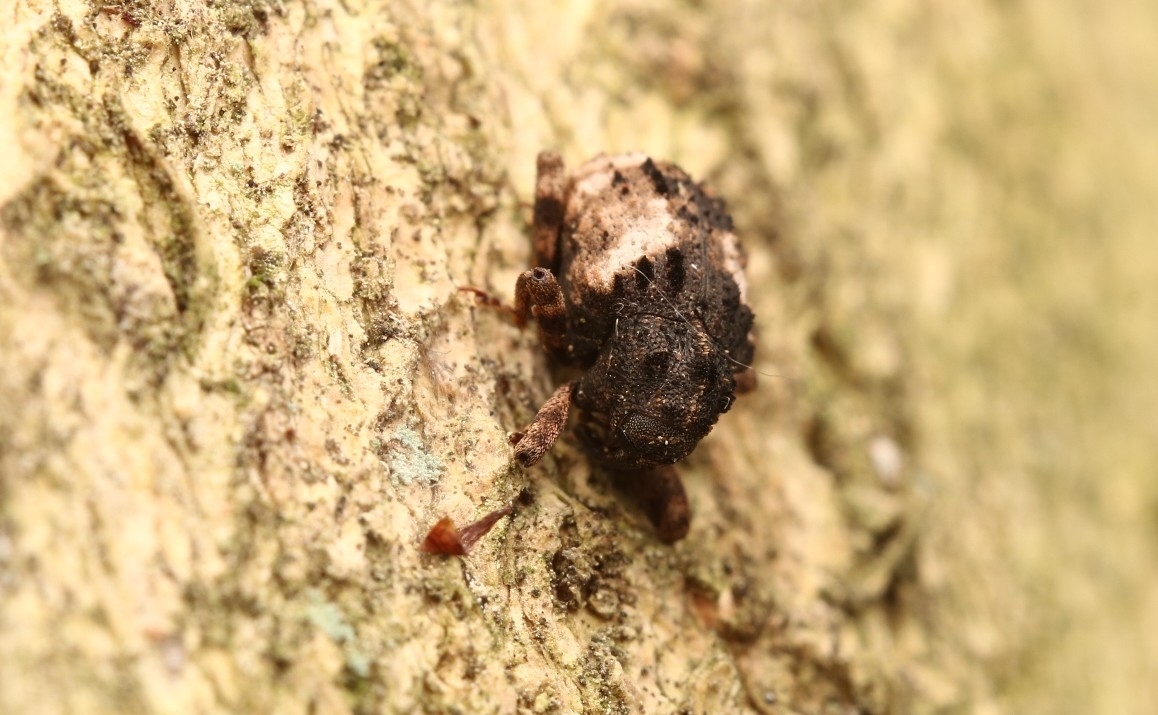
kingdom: Animalia
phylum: Arthropoda
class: Insecta
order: Coleoptera
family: Curculionidae
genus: Cryptorhynchus
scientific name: Cryptorhynchus fuscatus
